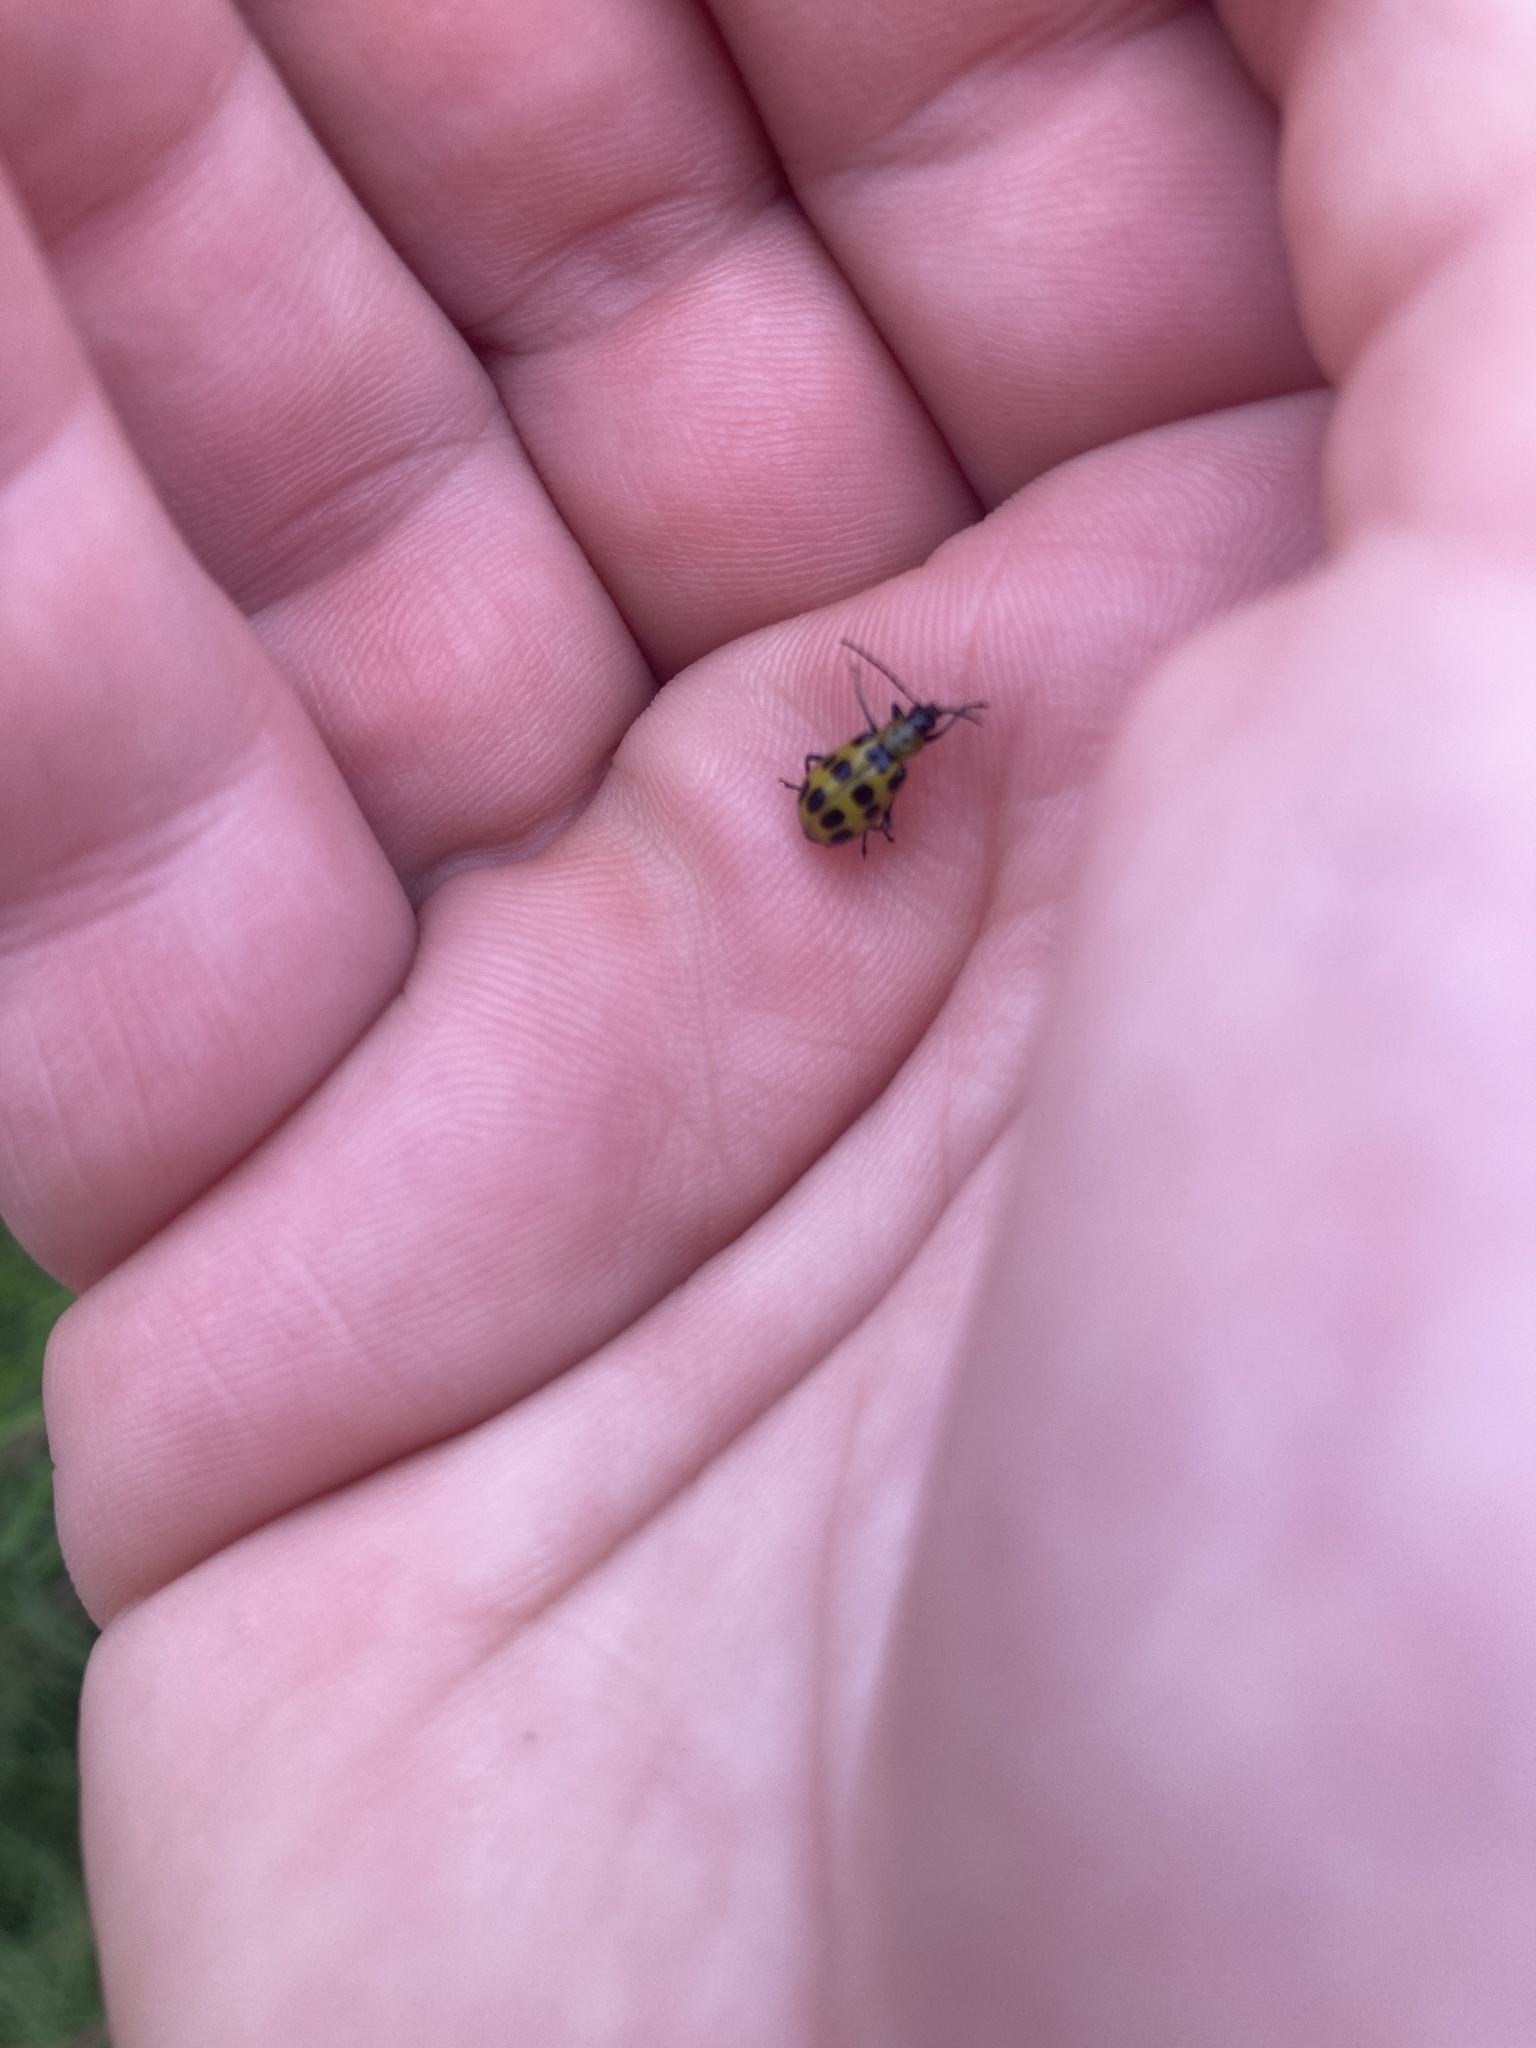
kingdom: Animalia
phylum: Arthropoda
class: Insecta
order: Coleoptera
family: Chrysomelidae
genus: Diabrotica
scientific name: Diabrotica undecimpunctata
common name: Spotted cucumber beetle
